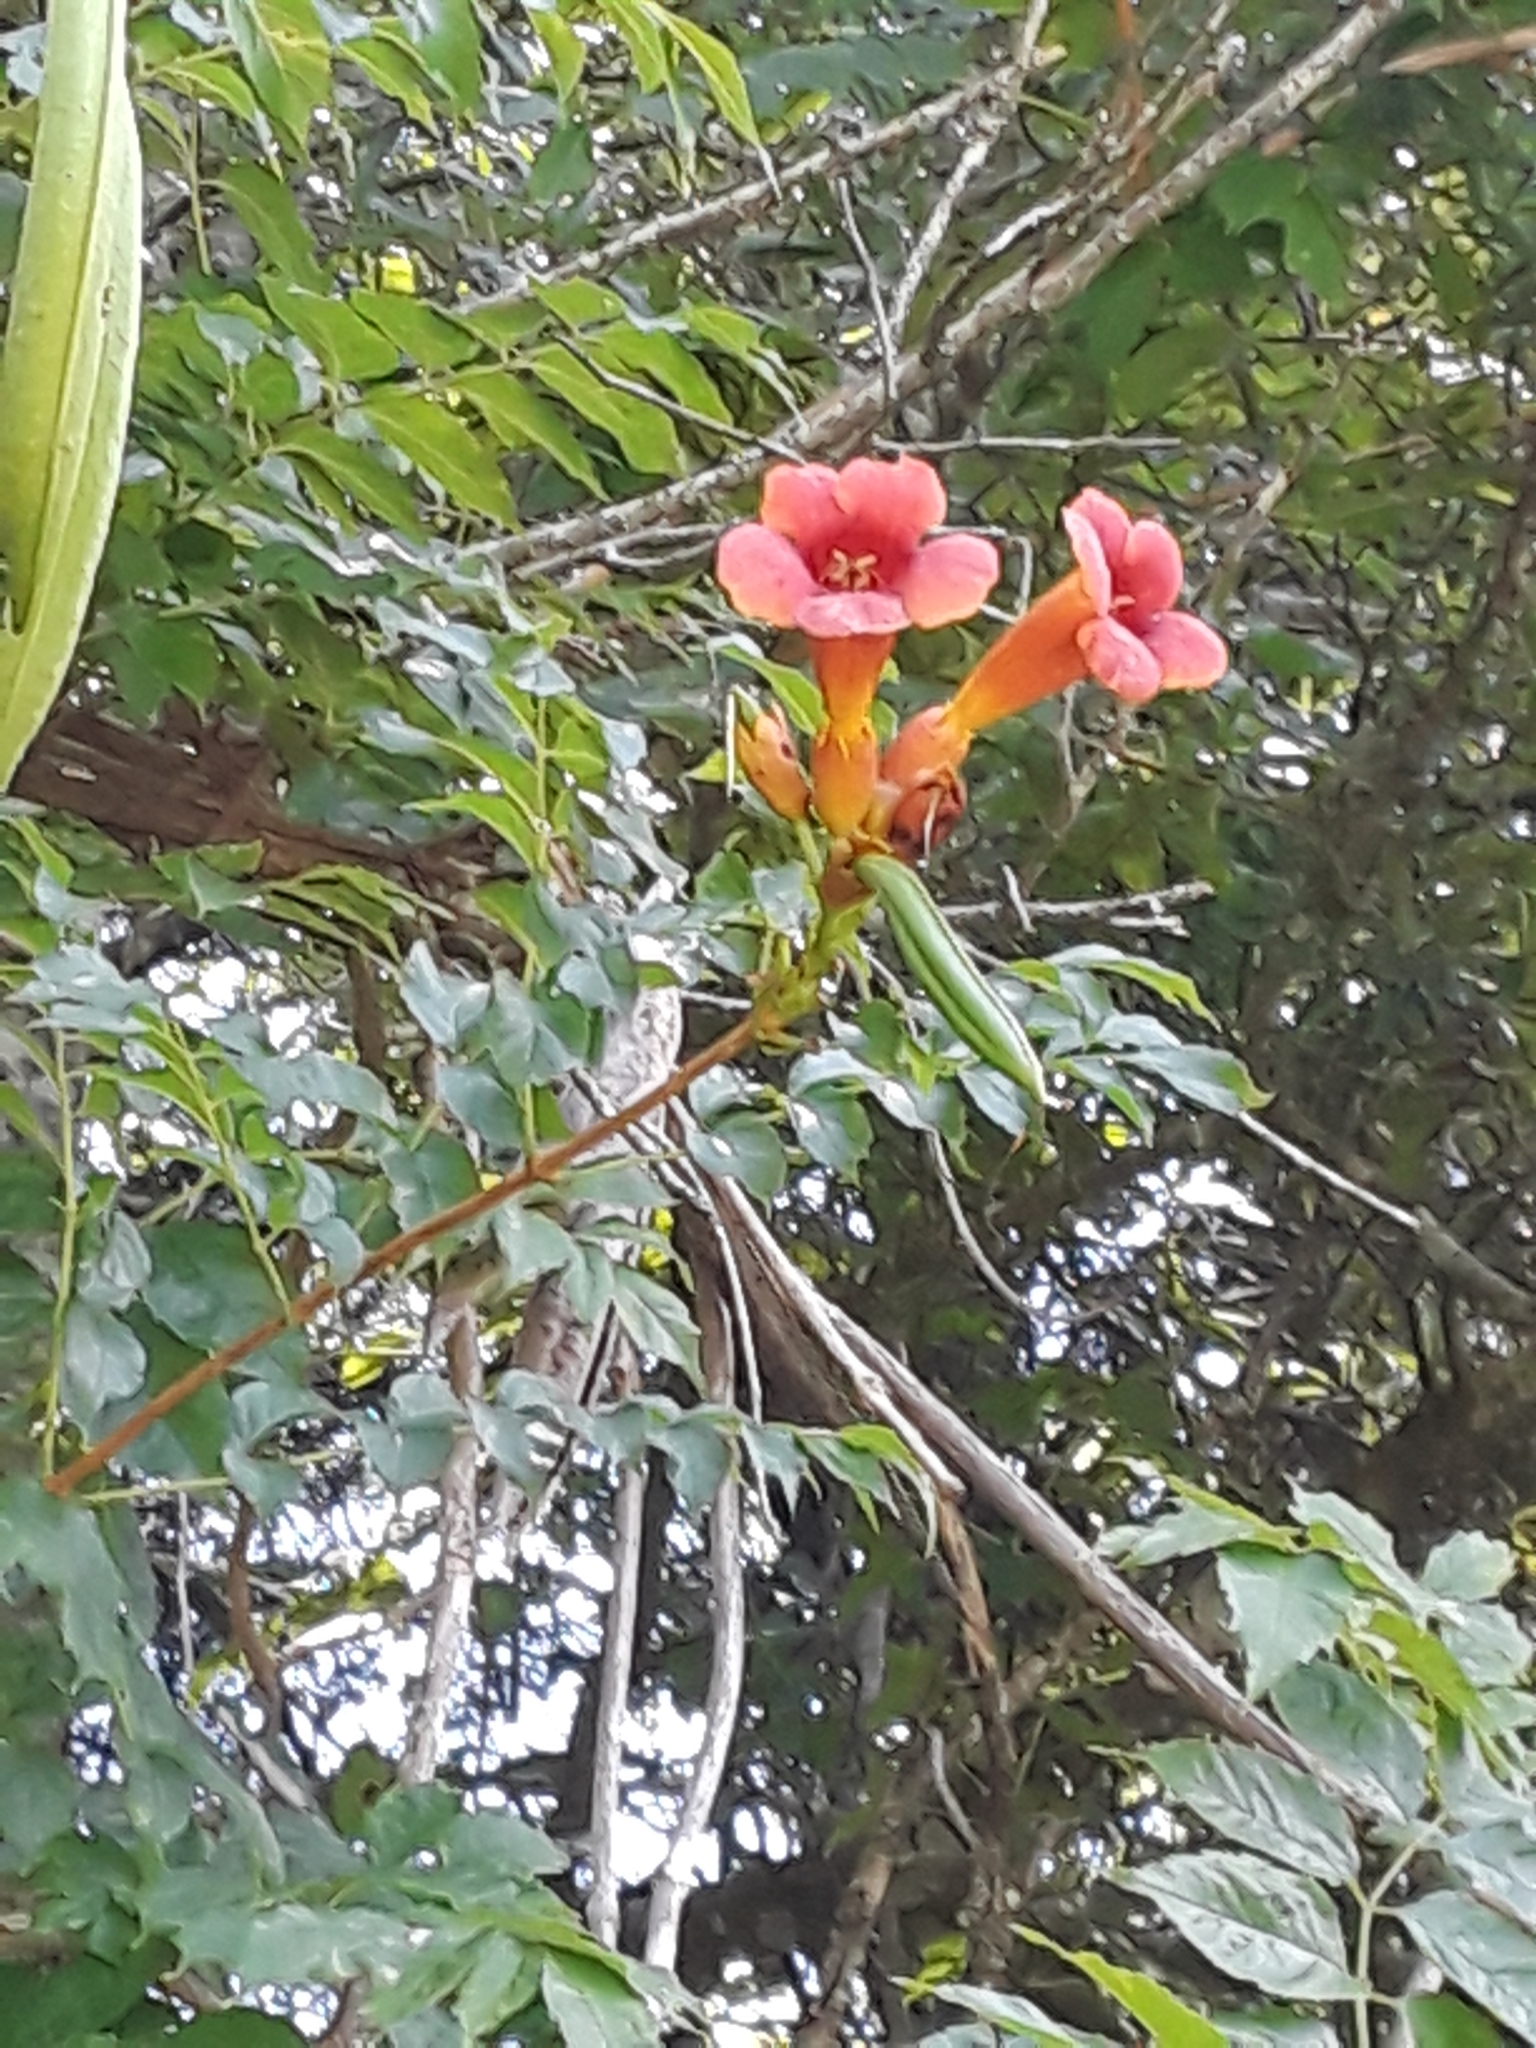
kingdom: Plantae
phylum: Tracheophyta
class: Magnoliopsida
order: Lamiales
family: Bignoniaceae
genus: Campsis
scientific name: Campsis radicans
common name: Trumpet-creeper
